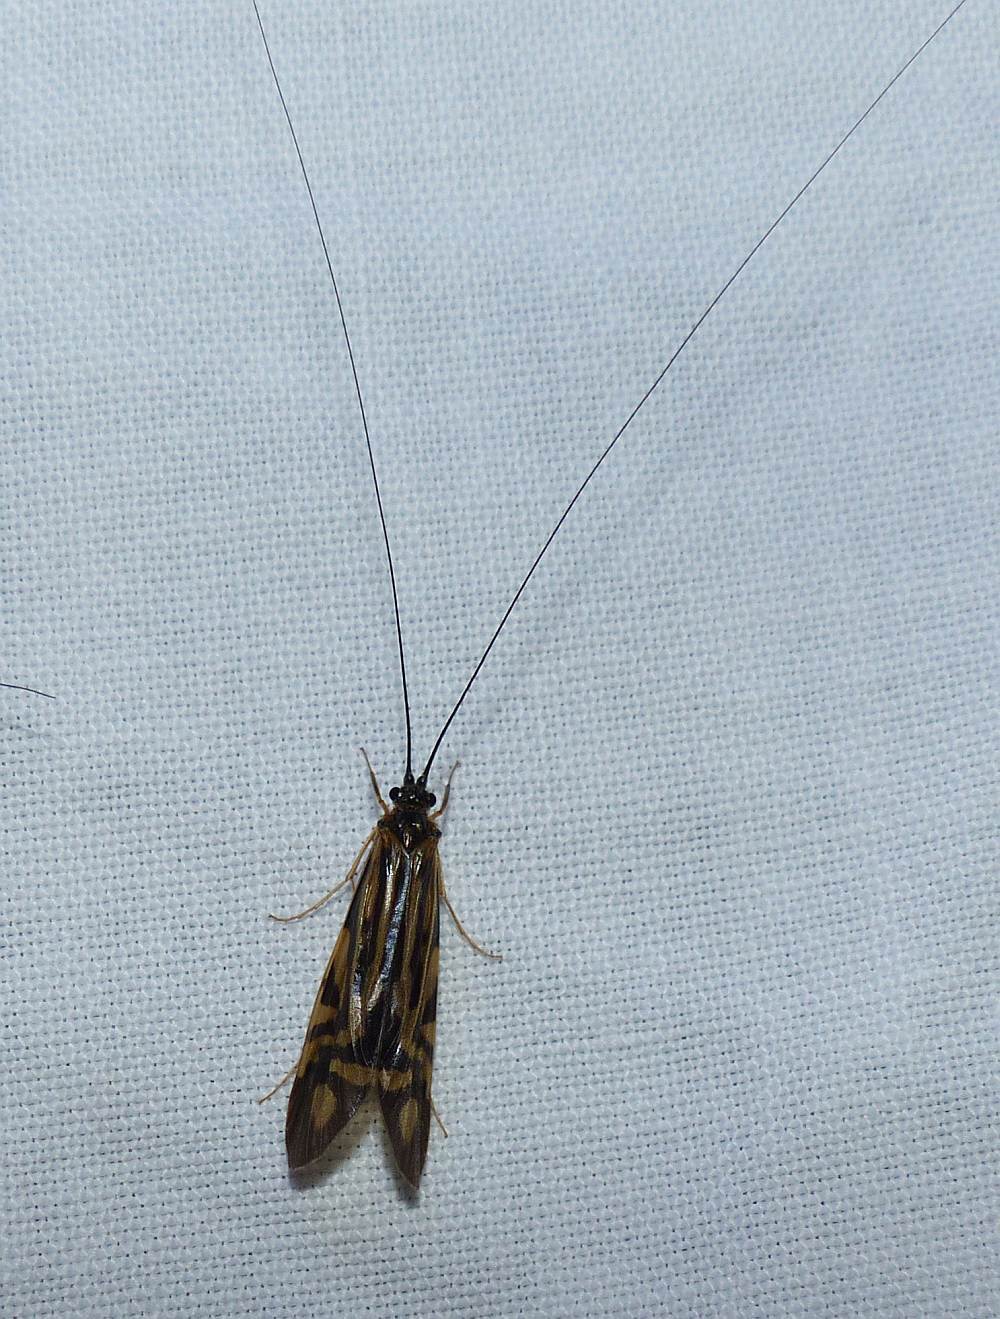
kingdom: Animalia
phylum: Arthropoda
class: Insecta
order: Trichoptera
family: Hydropsychidae
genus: Macrostemum
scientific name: Macrostemum zebratum
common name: Zebra caddisfly
